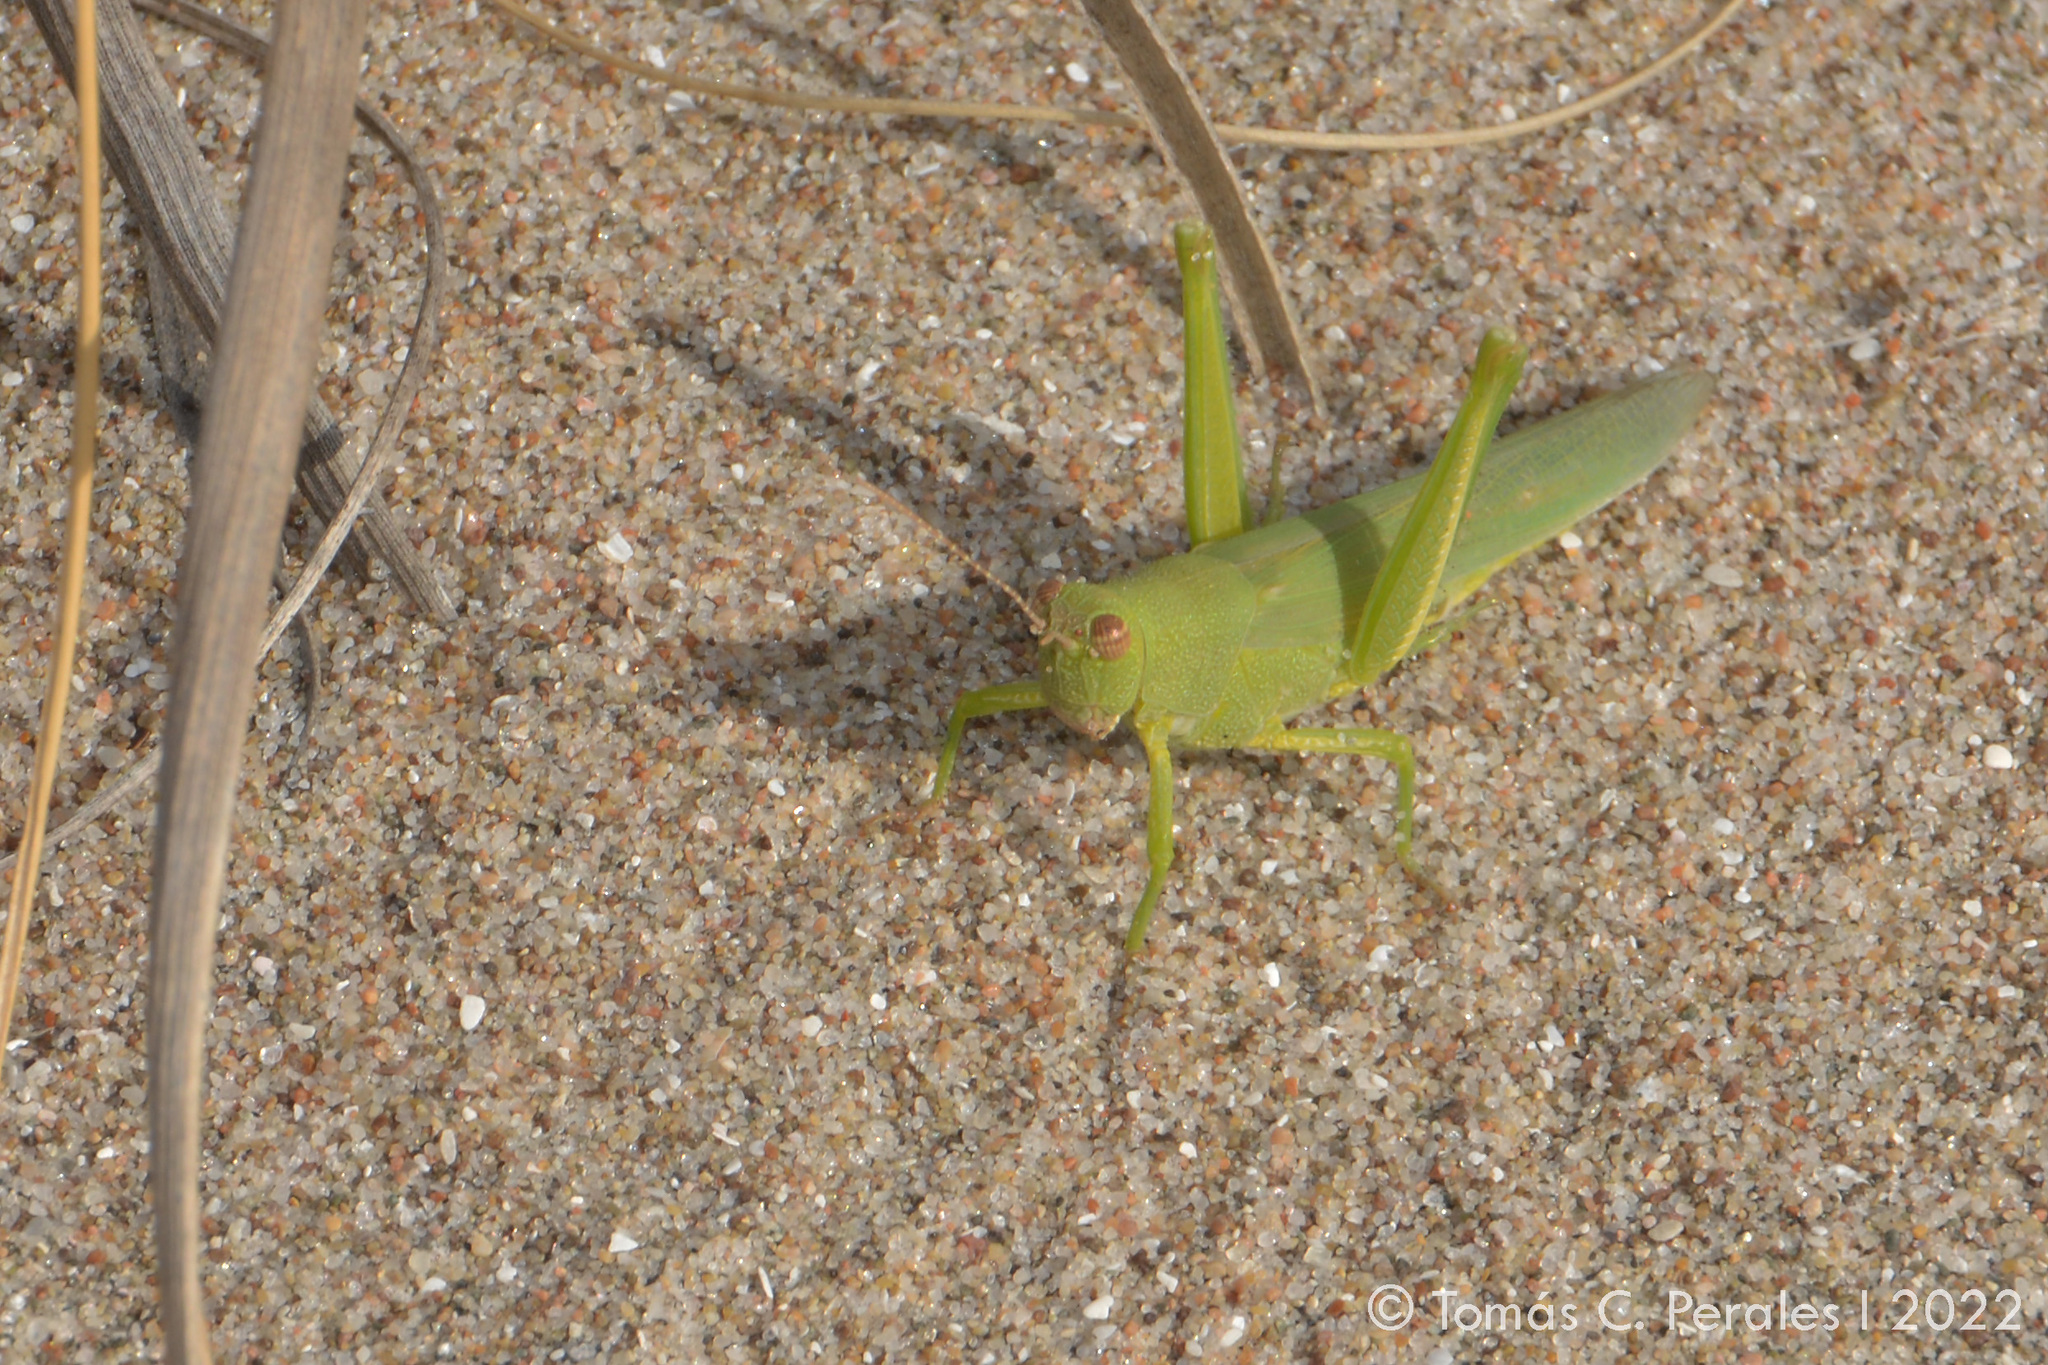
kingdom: Animalia
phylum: Arthropoda
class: Insecta
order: Orthoptera
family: Ommexechidae
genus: Clarazella
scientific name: Clarazella patagona
